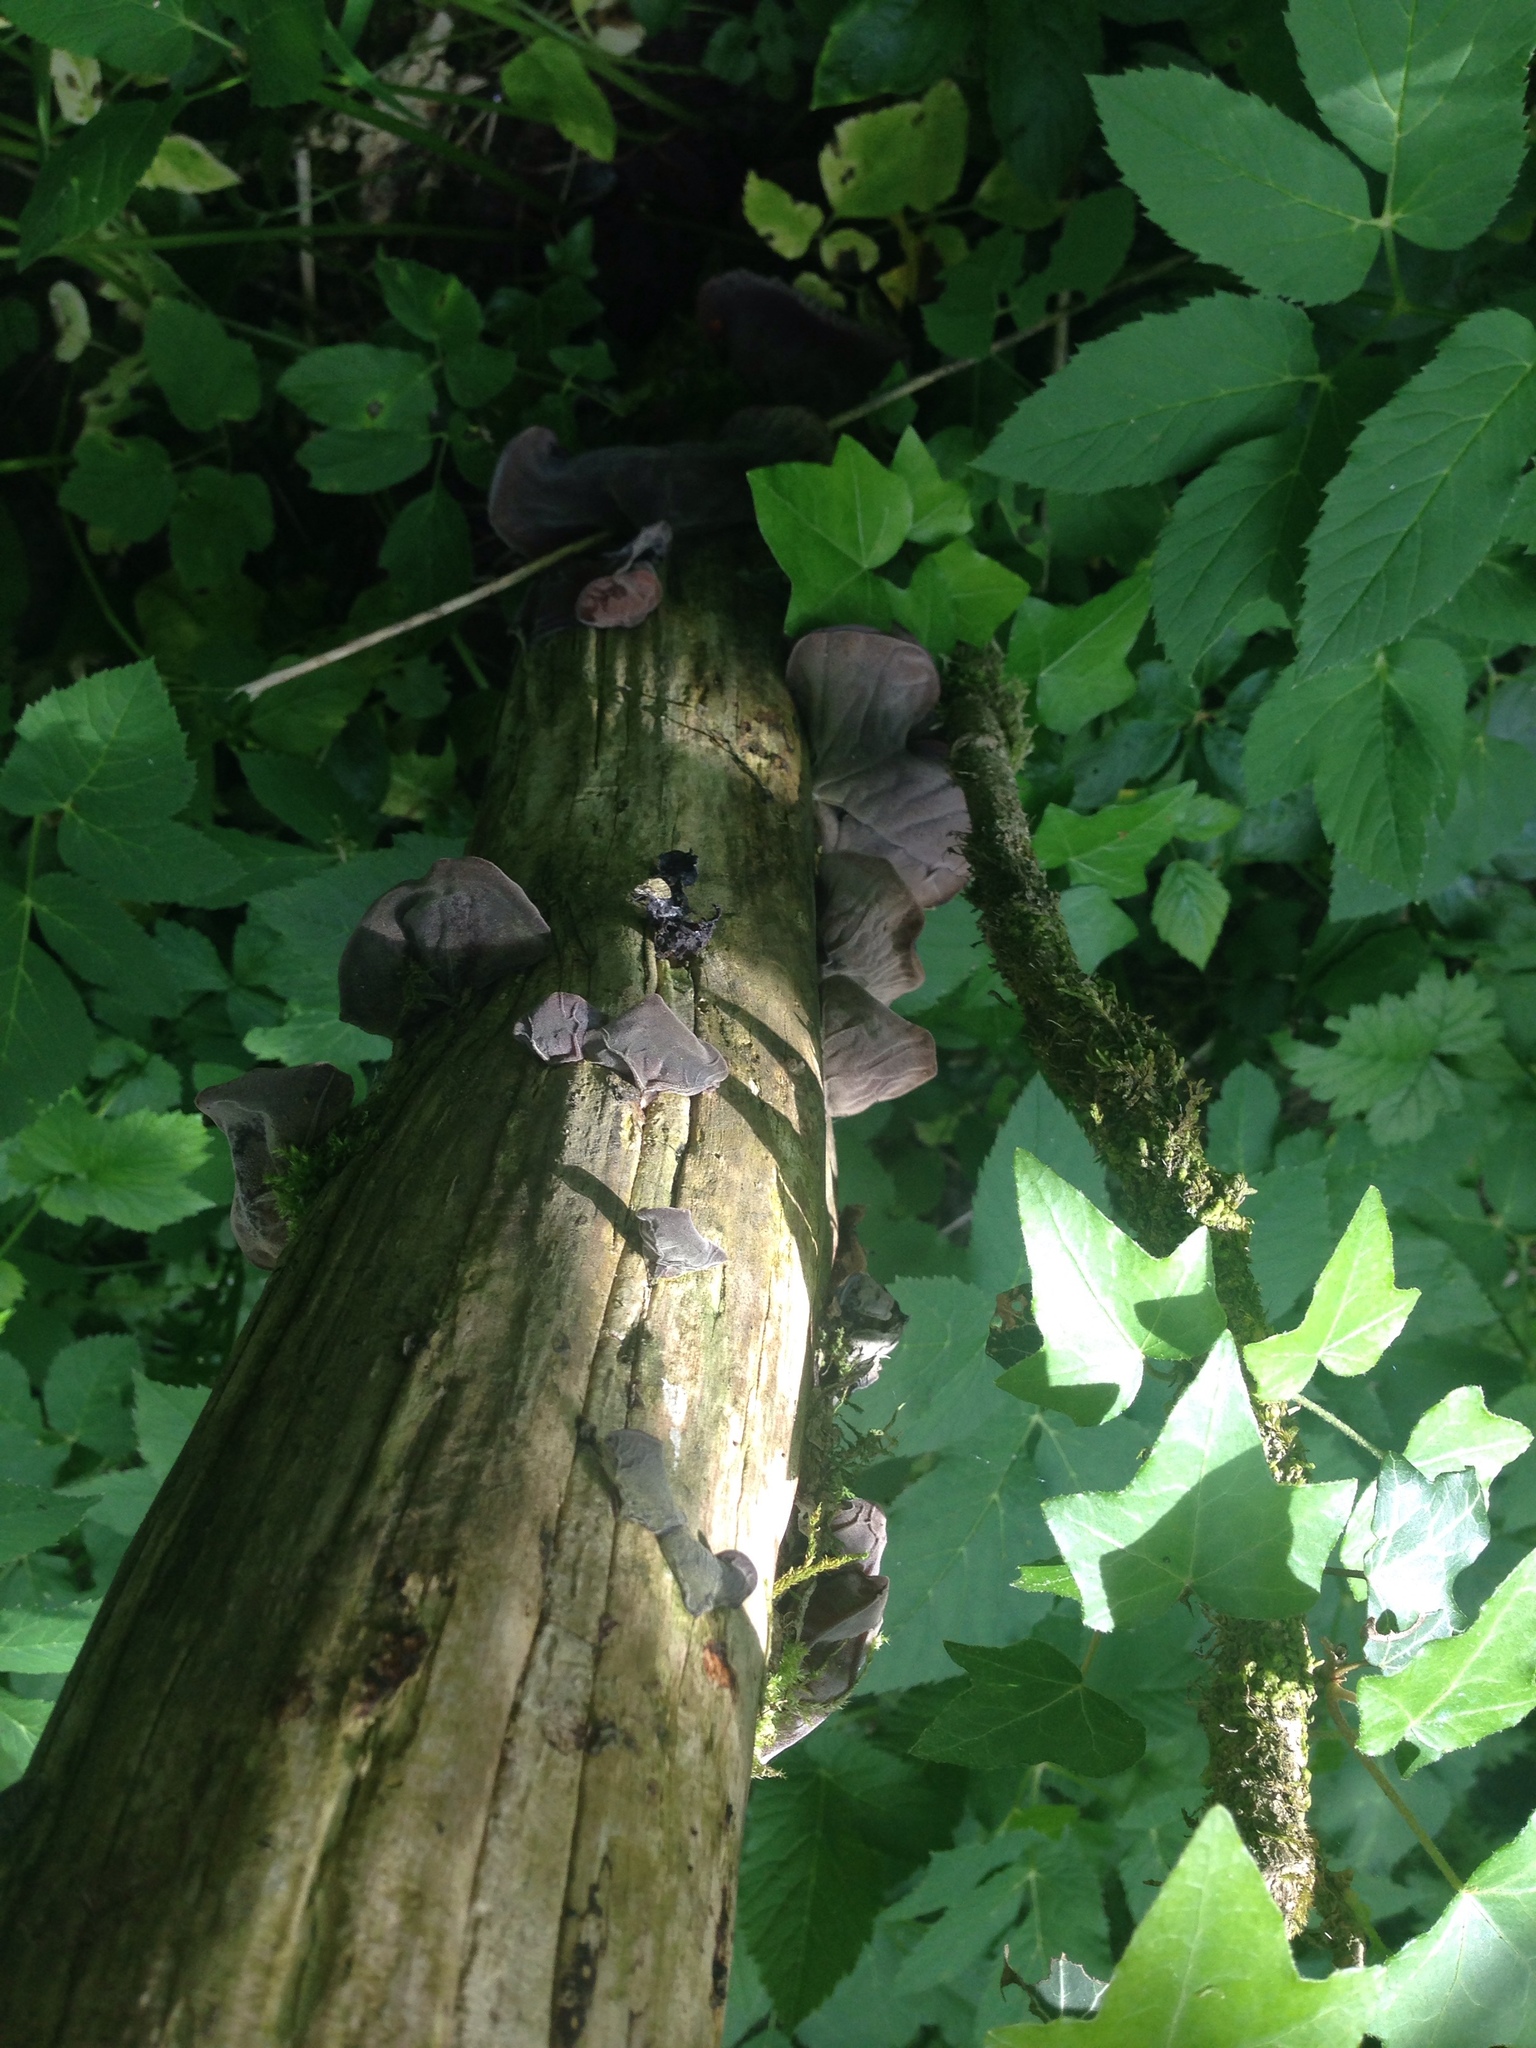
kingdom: Fungi
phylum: Basidiomycota
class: Agaricomycetes
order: Auriculariales
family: Auriculariaceae
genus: Auricularia
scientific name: Auricularia auricula-judae
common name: Jelly ear
